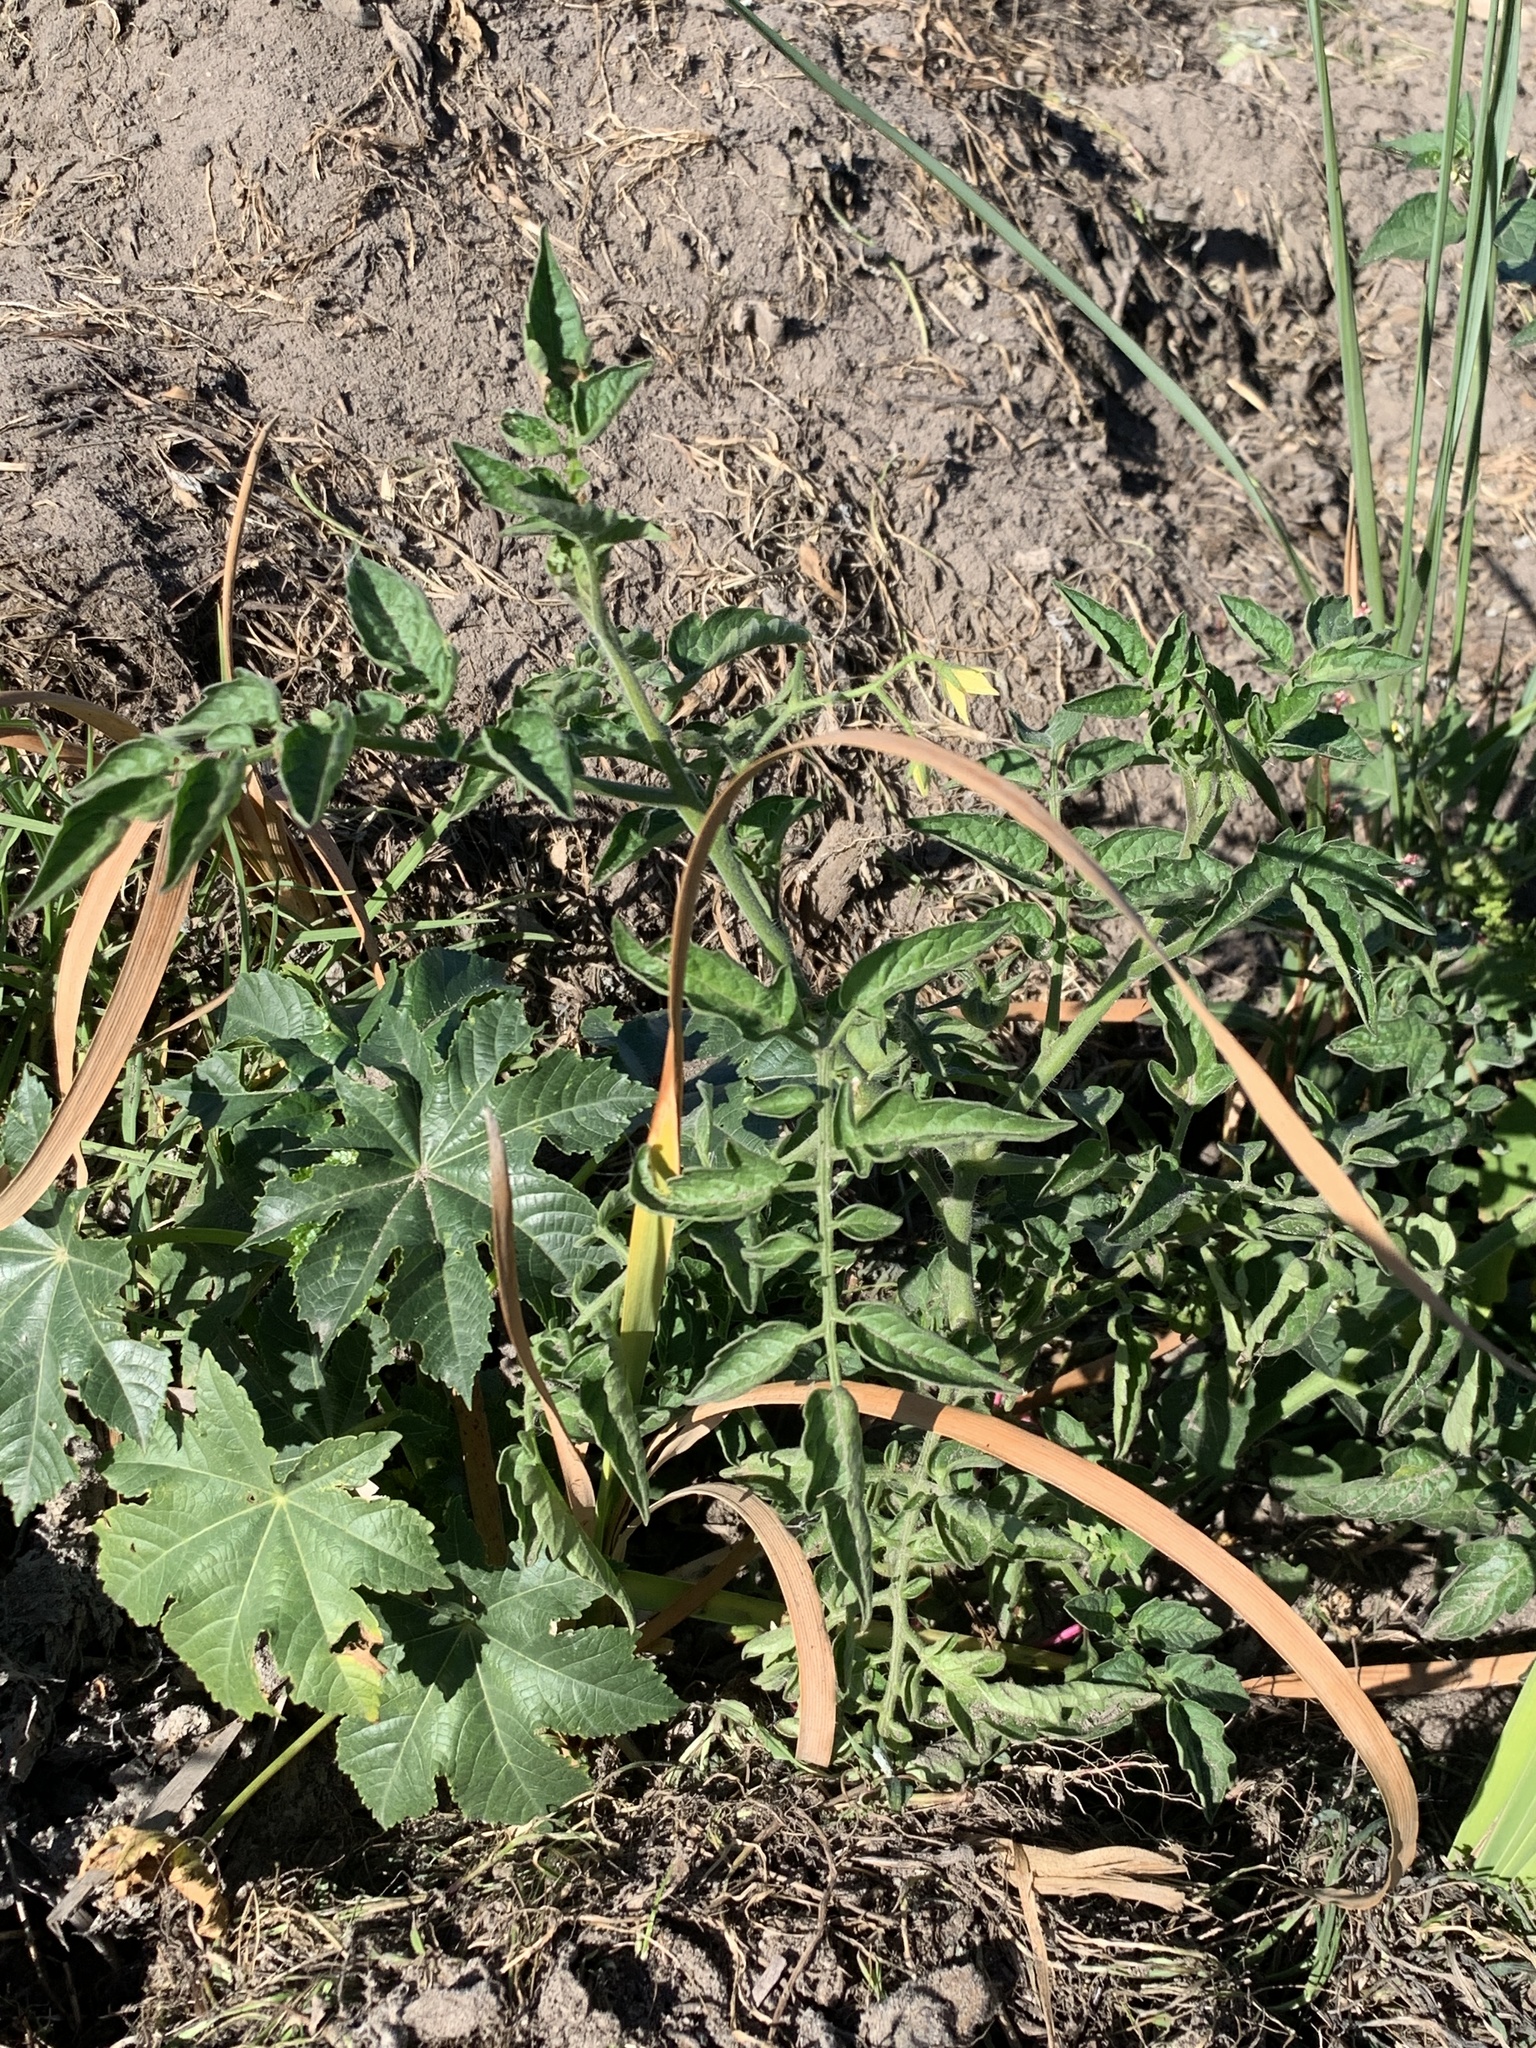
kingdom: Plantae
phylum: Tracheophyta
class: Magnoliopsida
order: Solanales
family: Solanaceae
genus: Solanum
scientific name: Solanum lycopersicum
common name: Garden tomato
